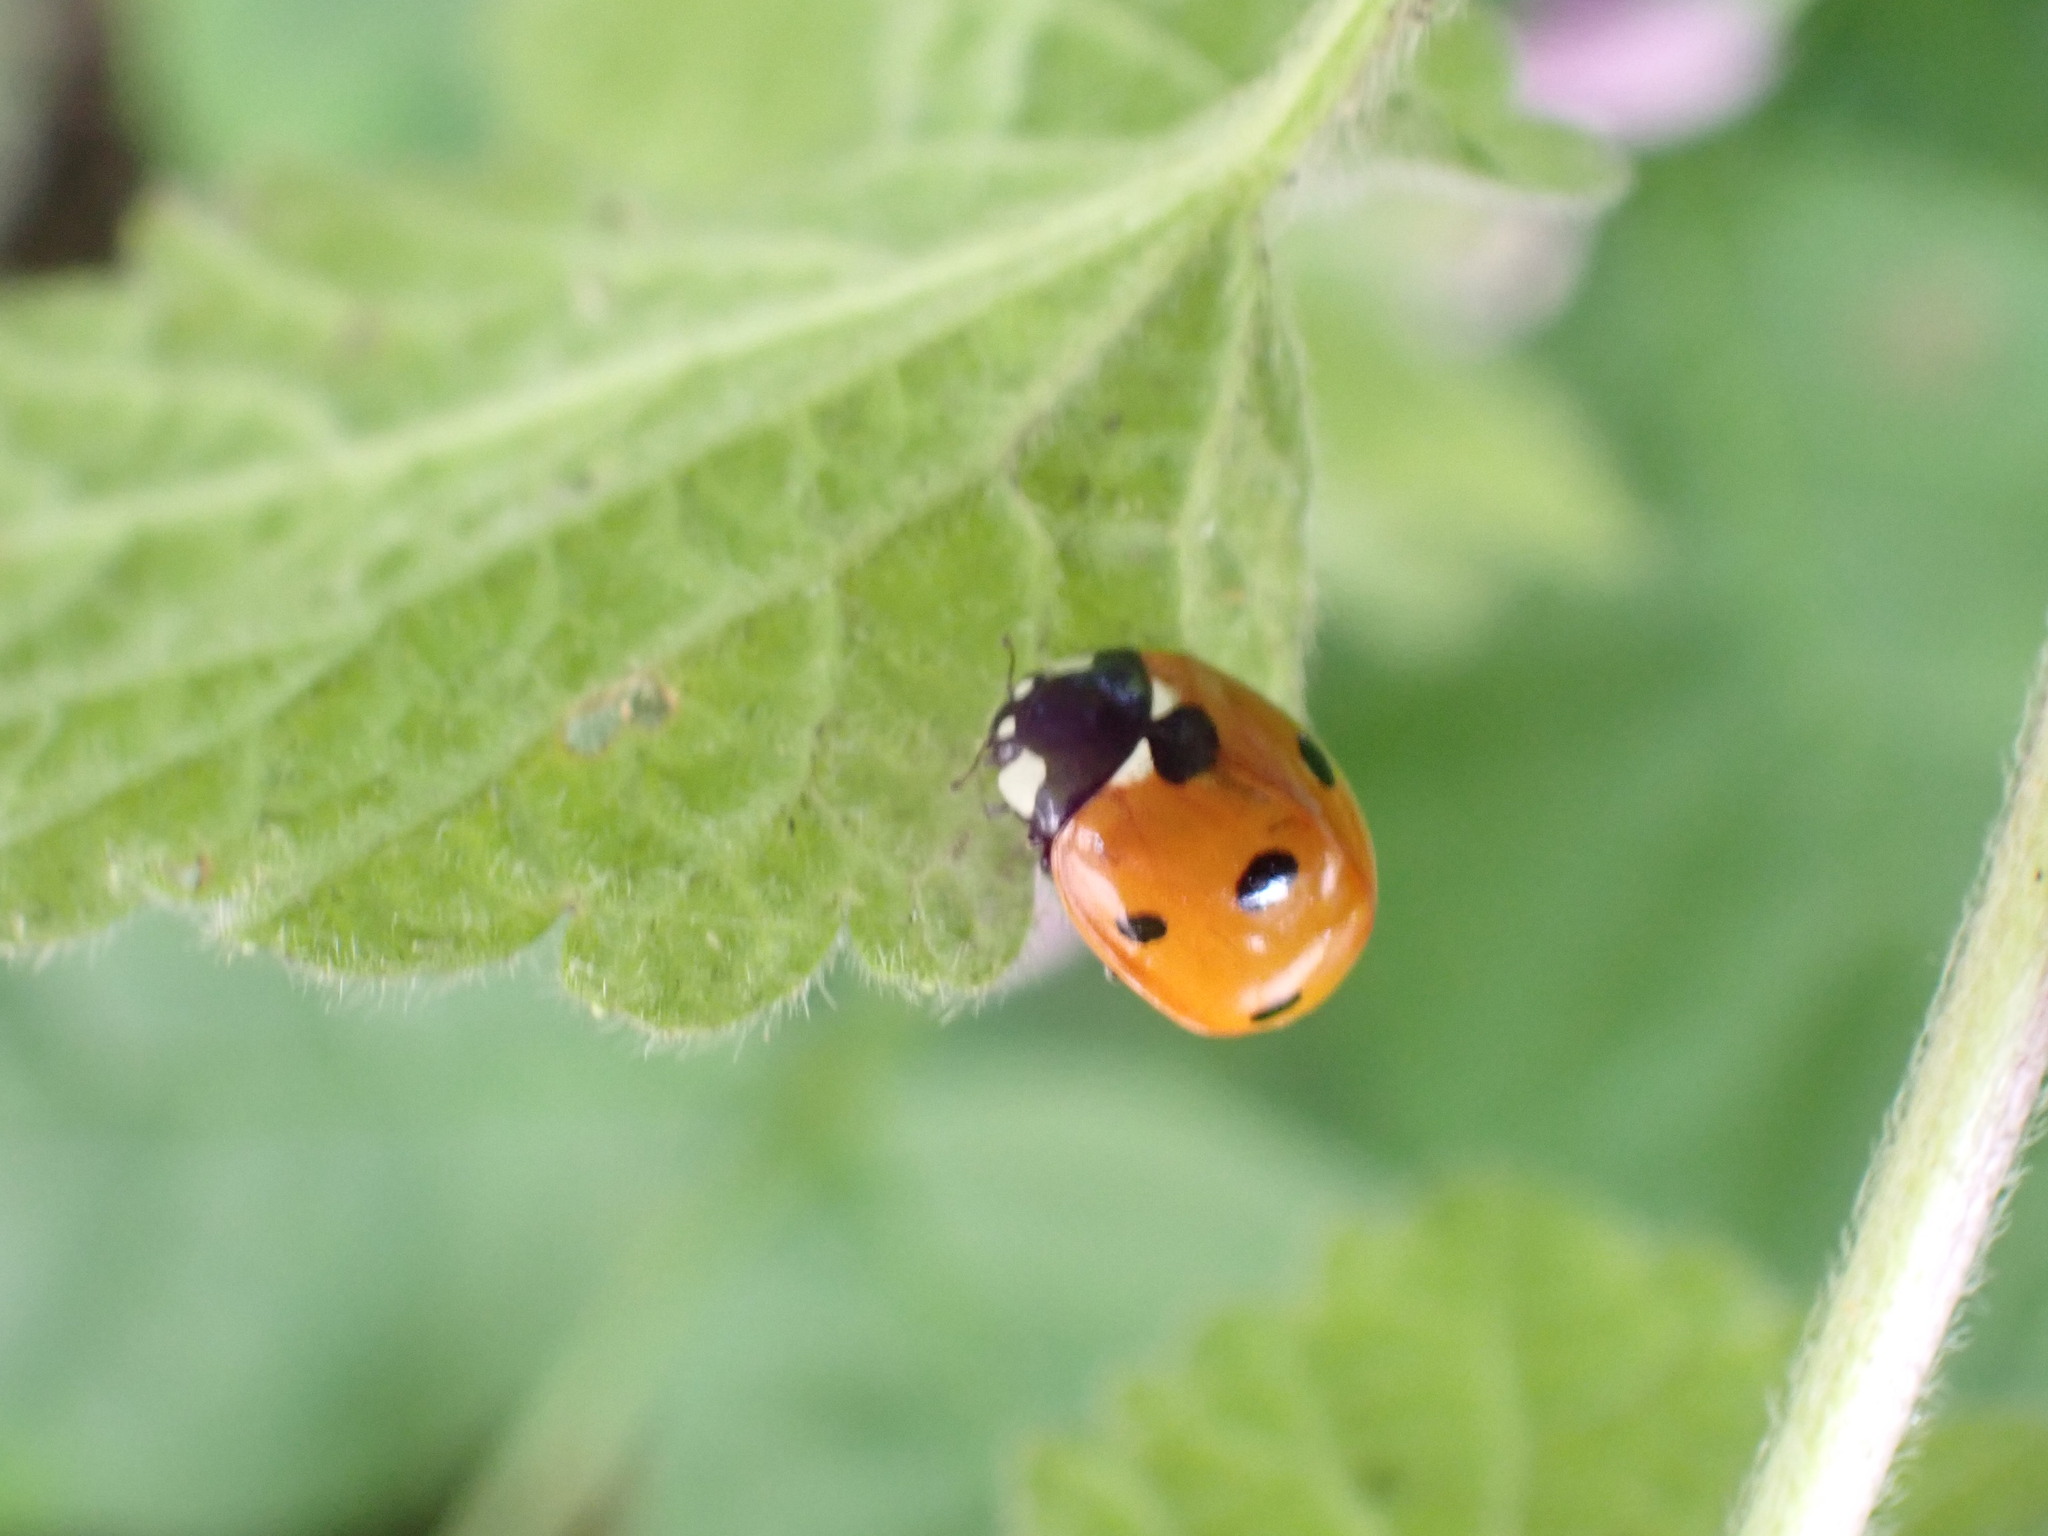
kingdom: Animalia
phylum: Arthropoda
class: Insecta
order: Coleoptera
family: Coccinellidae
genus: Coccinella
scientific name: Coccinella septempunctata
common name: Sevenspotted lady beetle
